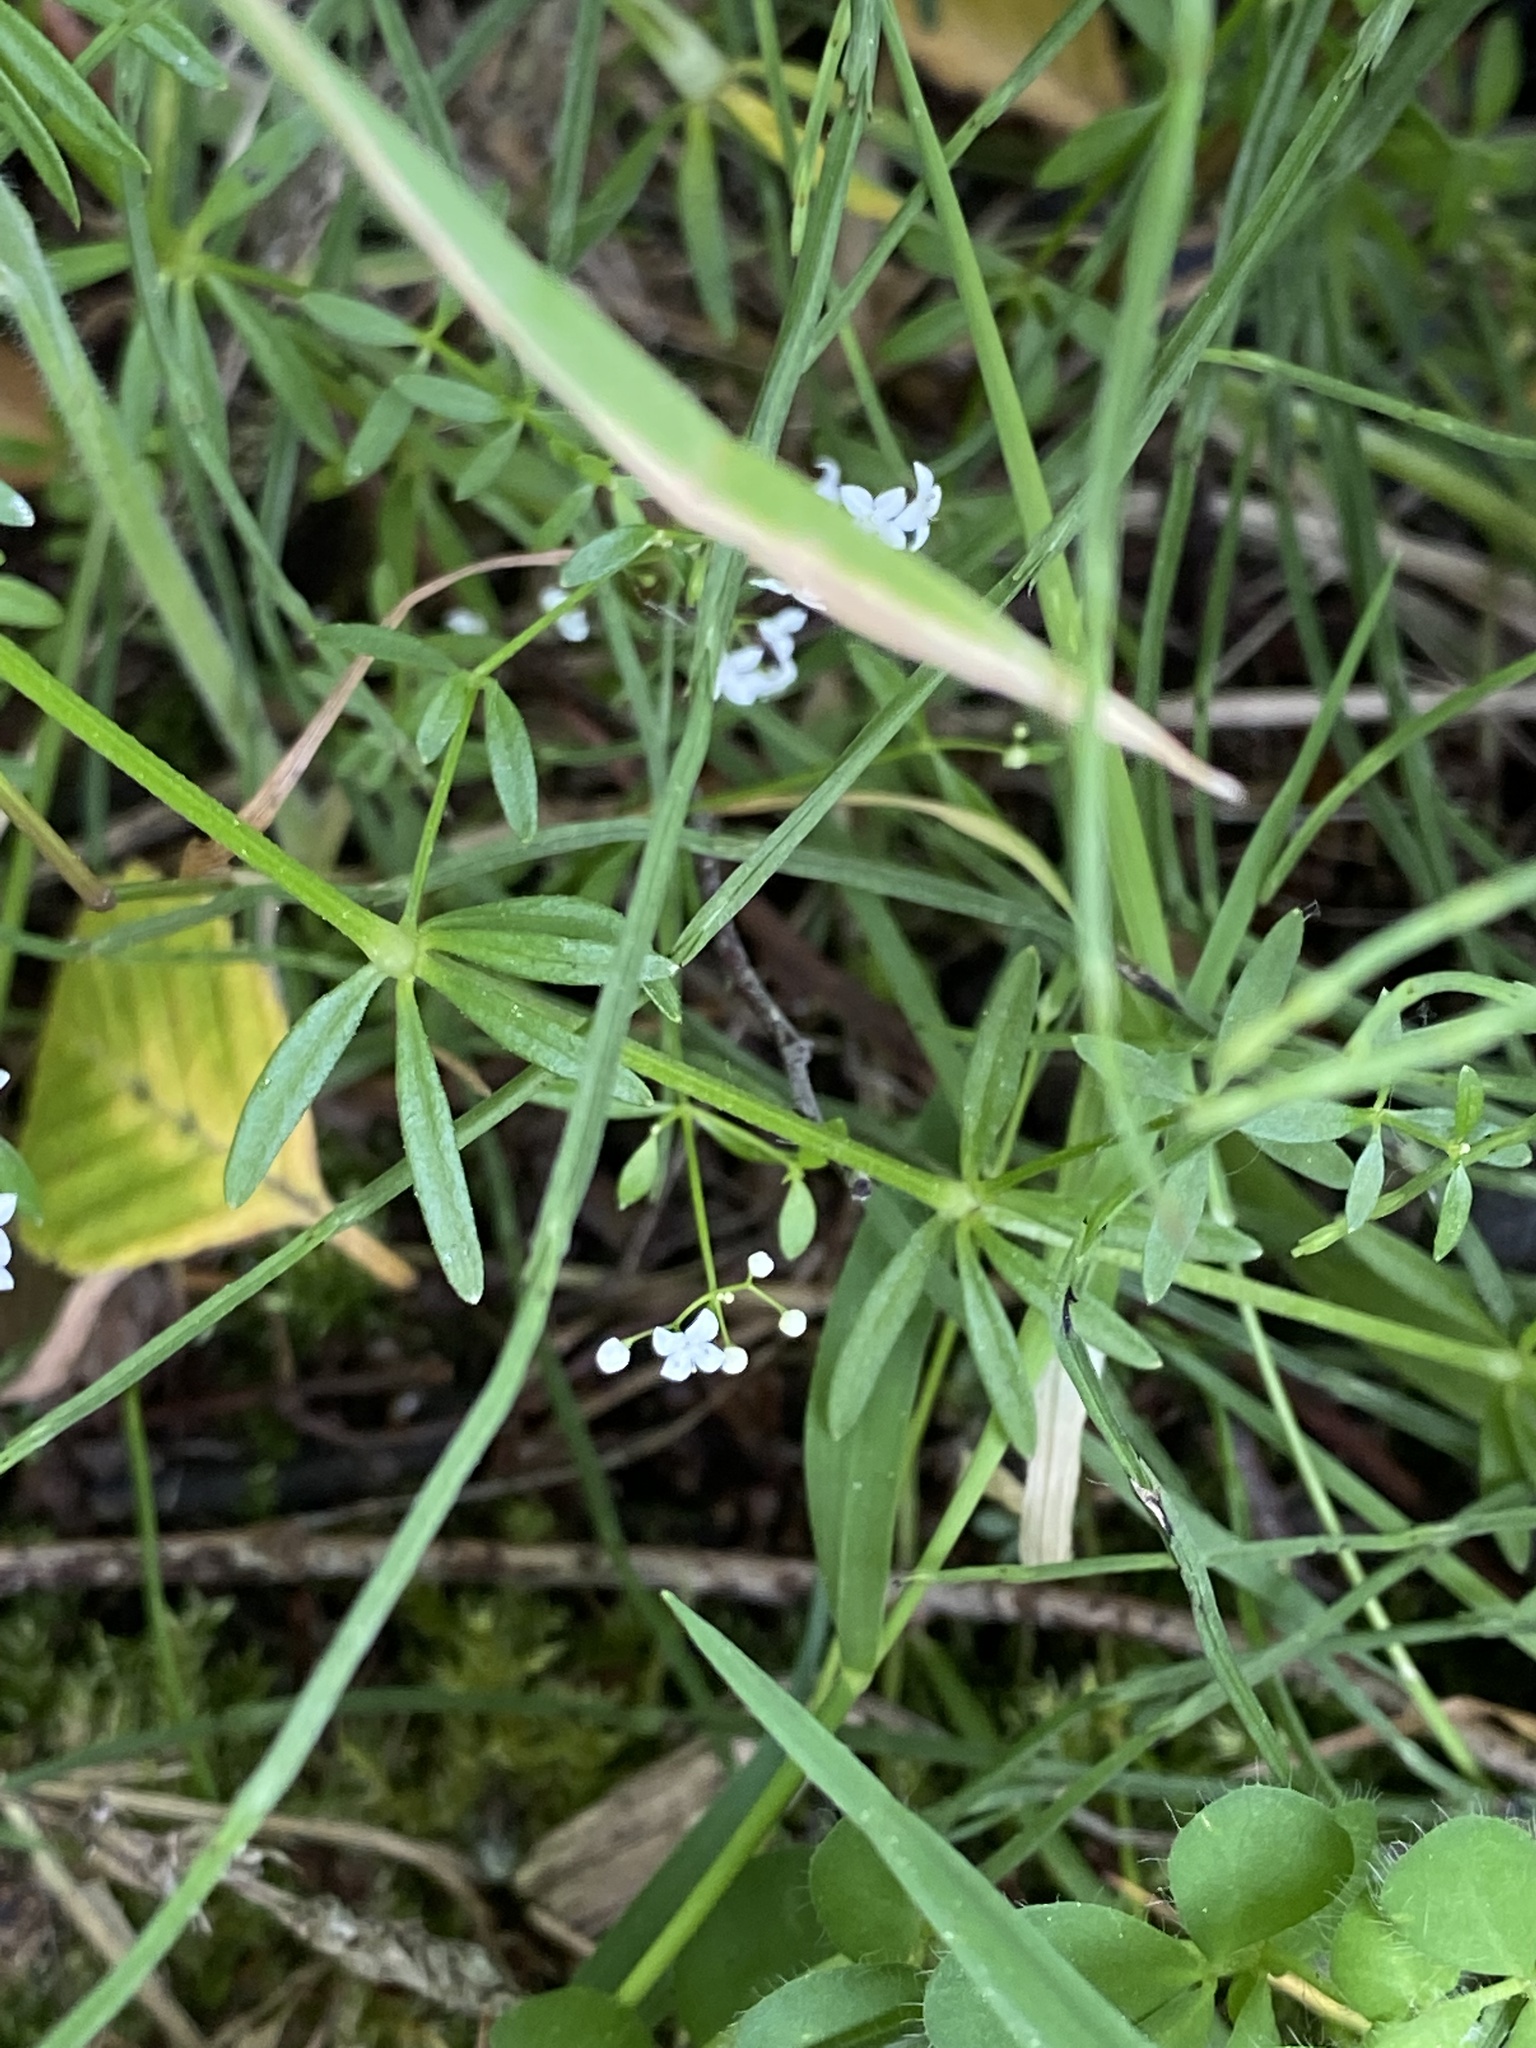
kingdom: Plantae
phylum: Tracheophyta
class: Magnoliopsida
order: Gentianales
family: Rubiaceae
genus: Galium
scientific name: Galium palustre
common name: Common marsh-bedstraw
